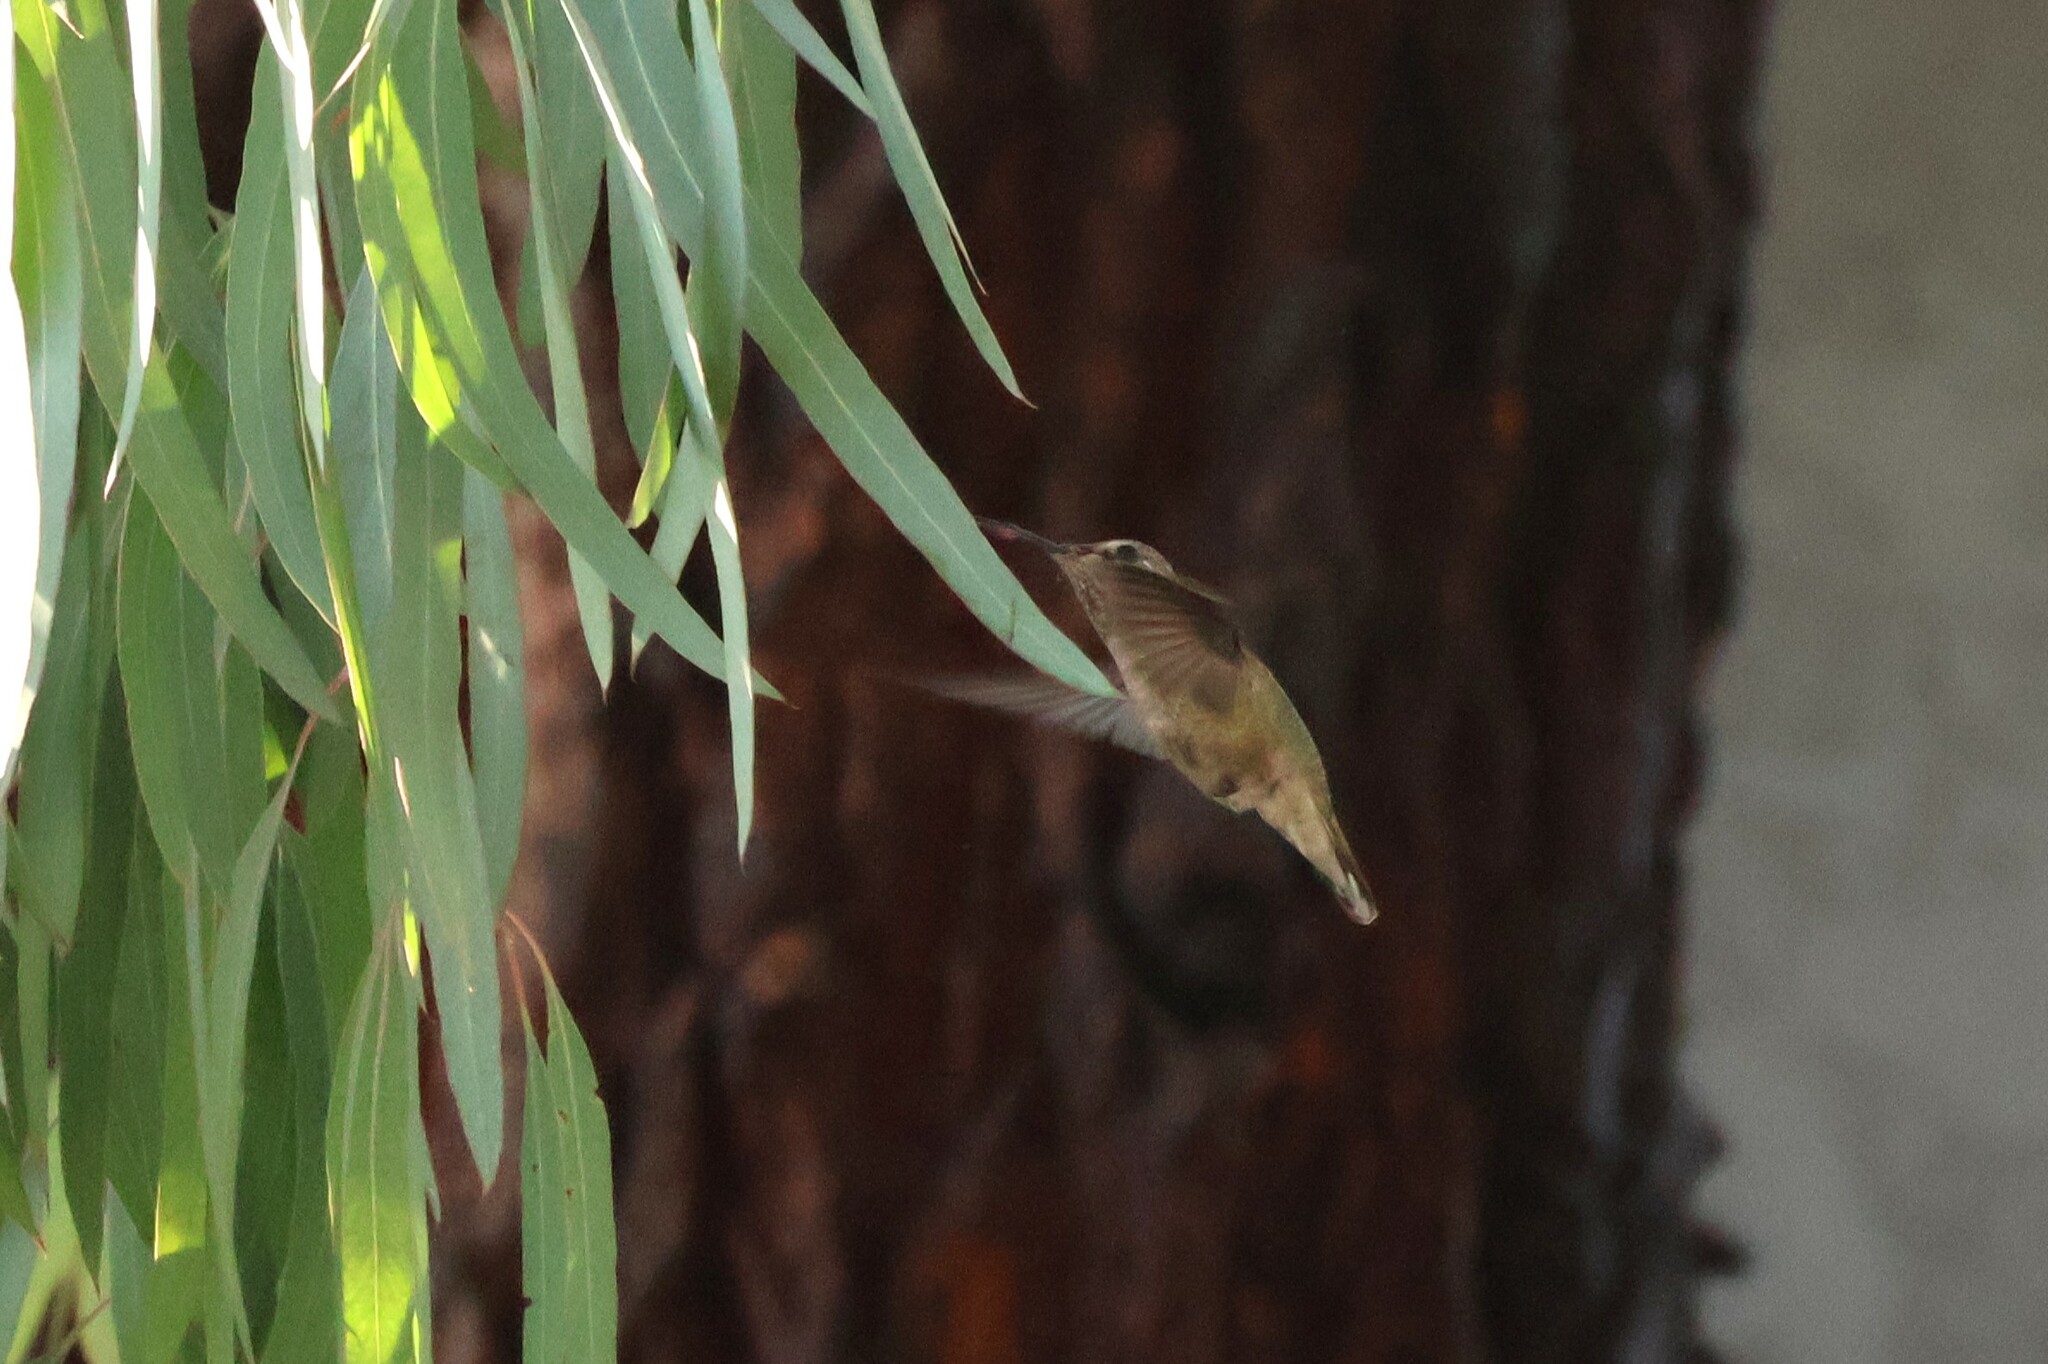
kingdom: Animalia
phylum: Chordata
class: Aves
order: Apodiformes
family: Trochilidae
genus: Calypte
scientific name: Calypte anna
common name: Anna's hummingbird
